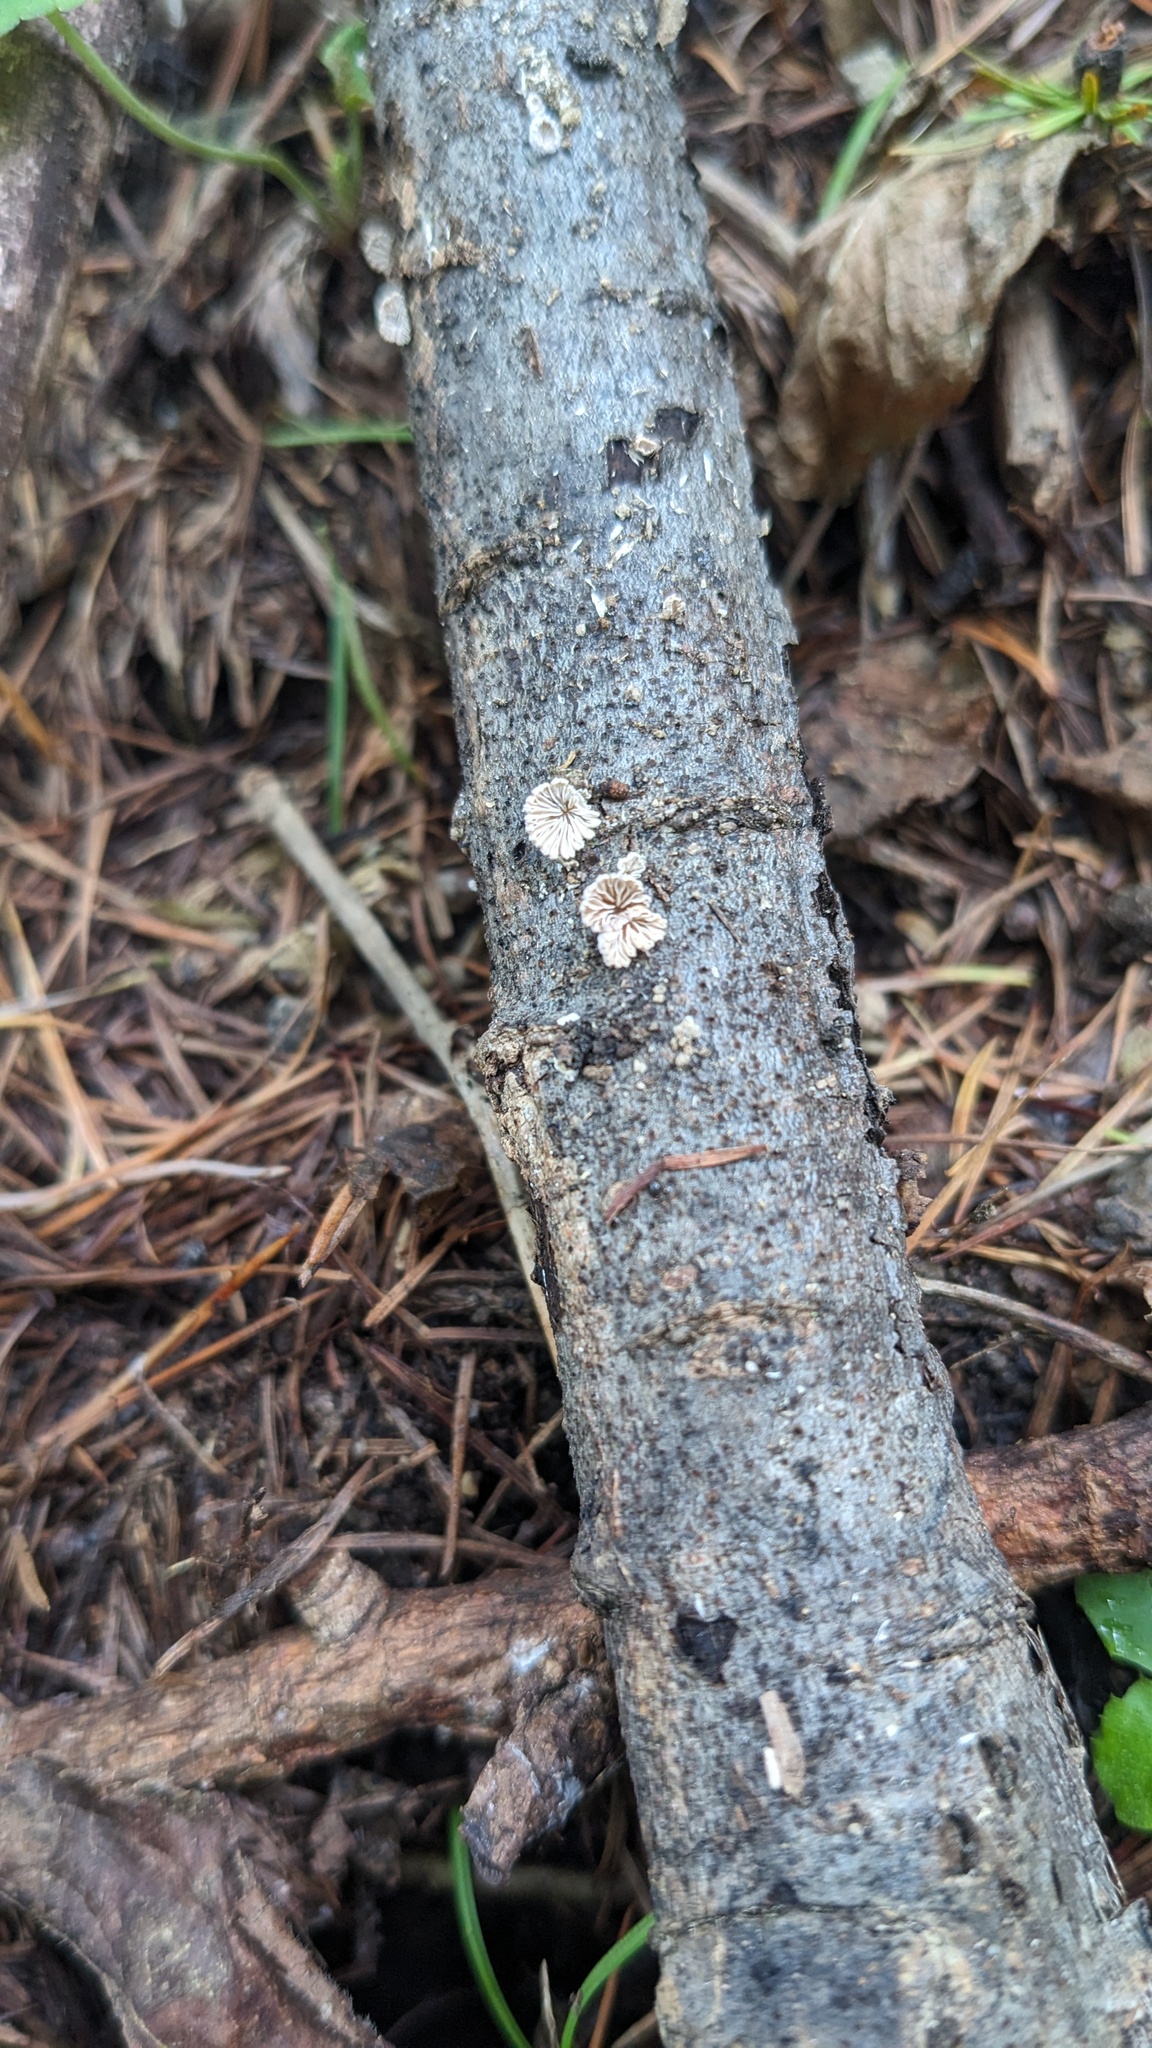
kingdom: Fungi
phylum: Basidiomycota
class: Agaricomycetes
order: Agaricales
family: Schizophyllaceae
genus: Schizophyllum
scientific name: Schizophyllum commune
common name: Common porecrust
